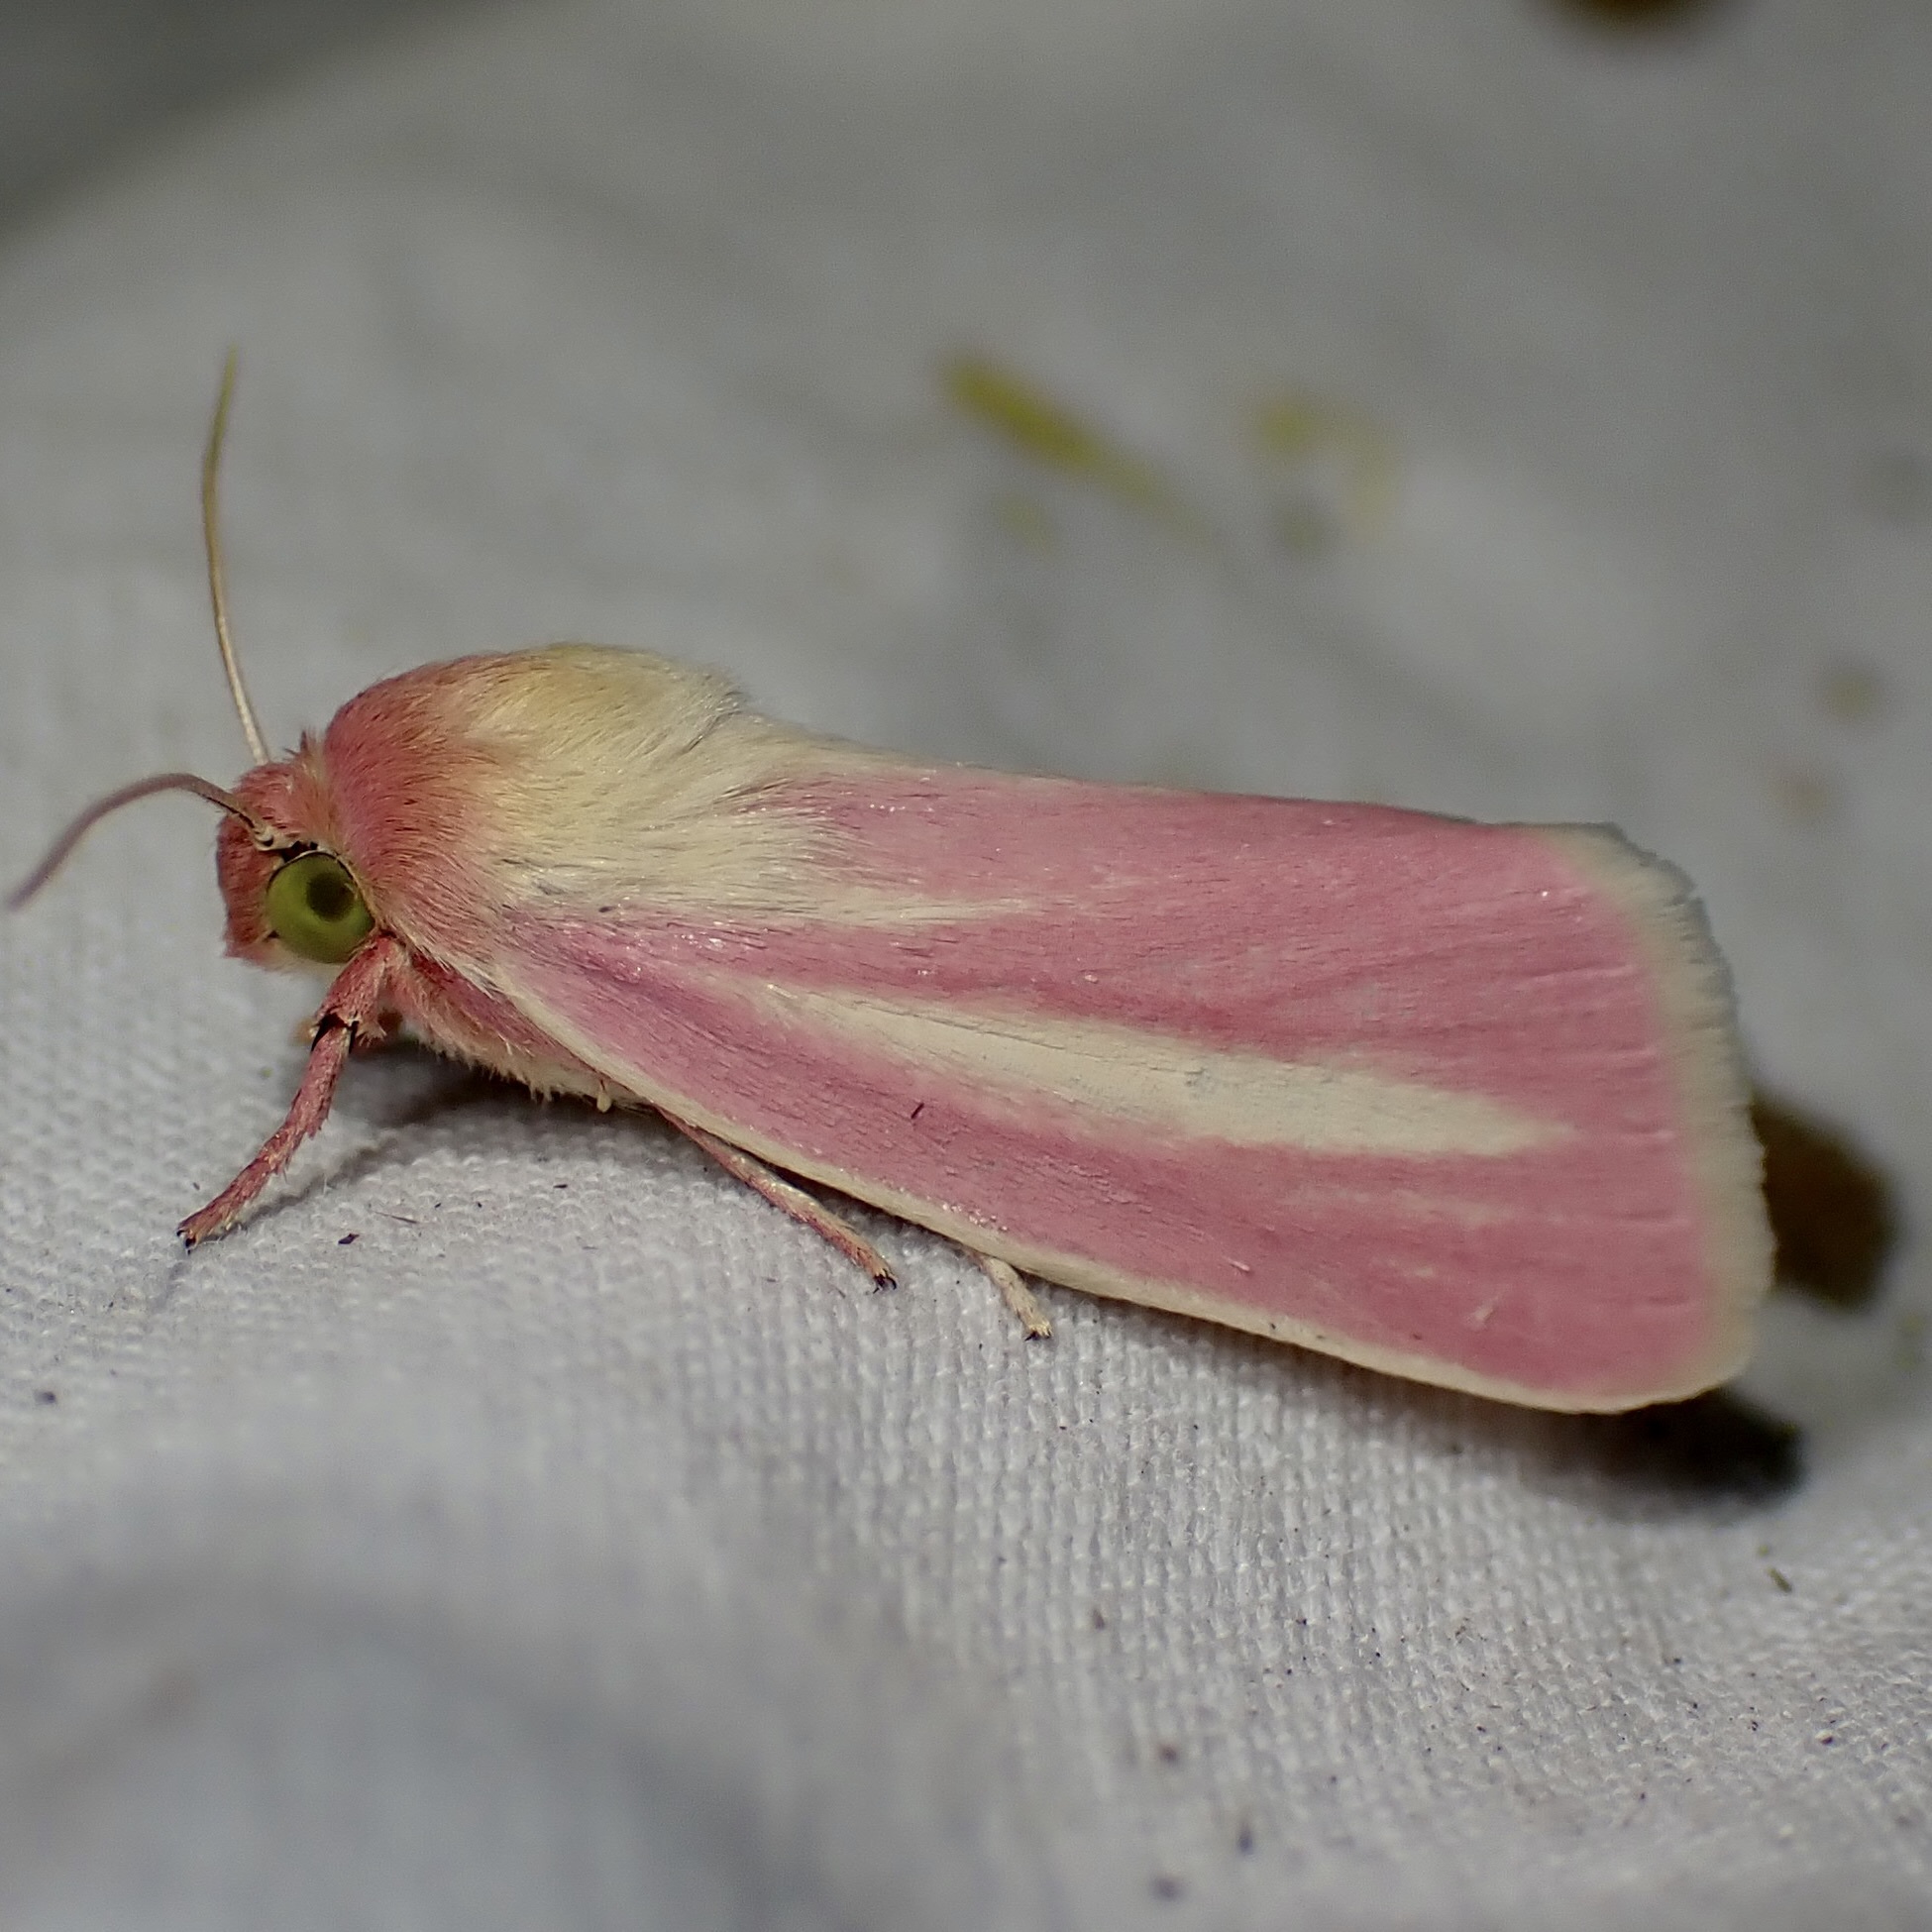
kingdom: Animalia
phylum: Arthropoda
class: Insecta
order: Lepidoptera
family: Noctuidae
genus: Heliocheilus
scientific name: Heliocheilus julia
